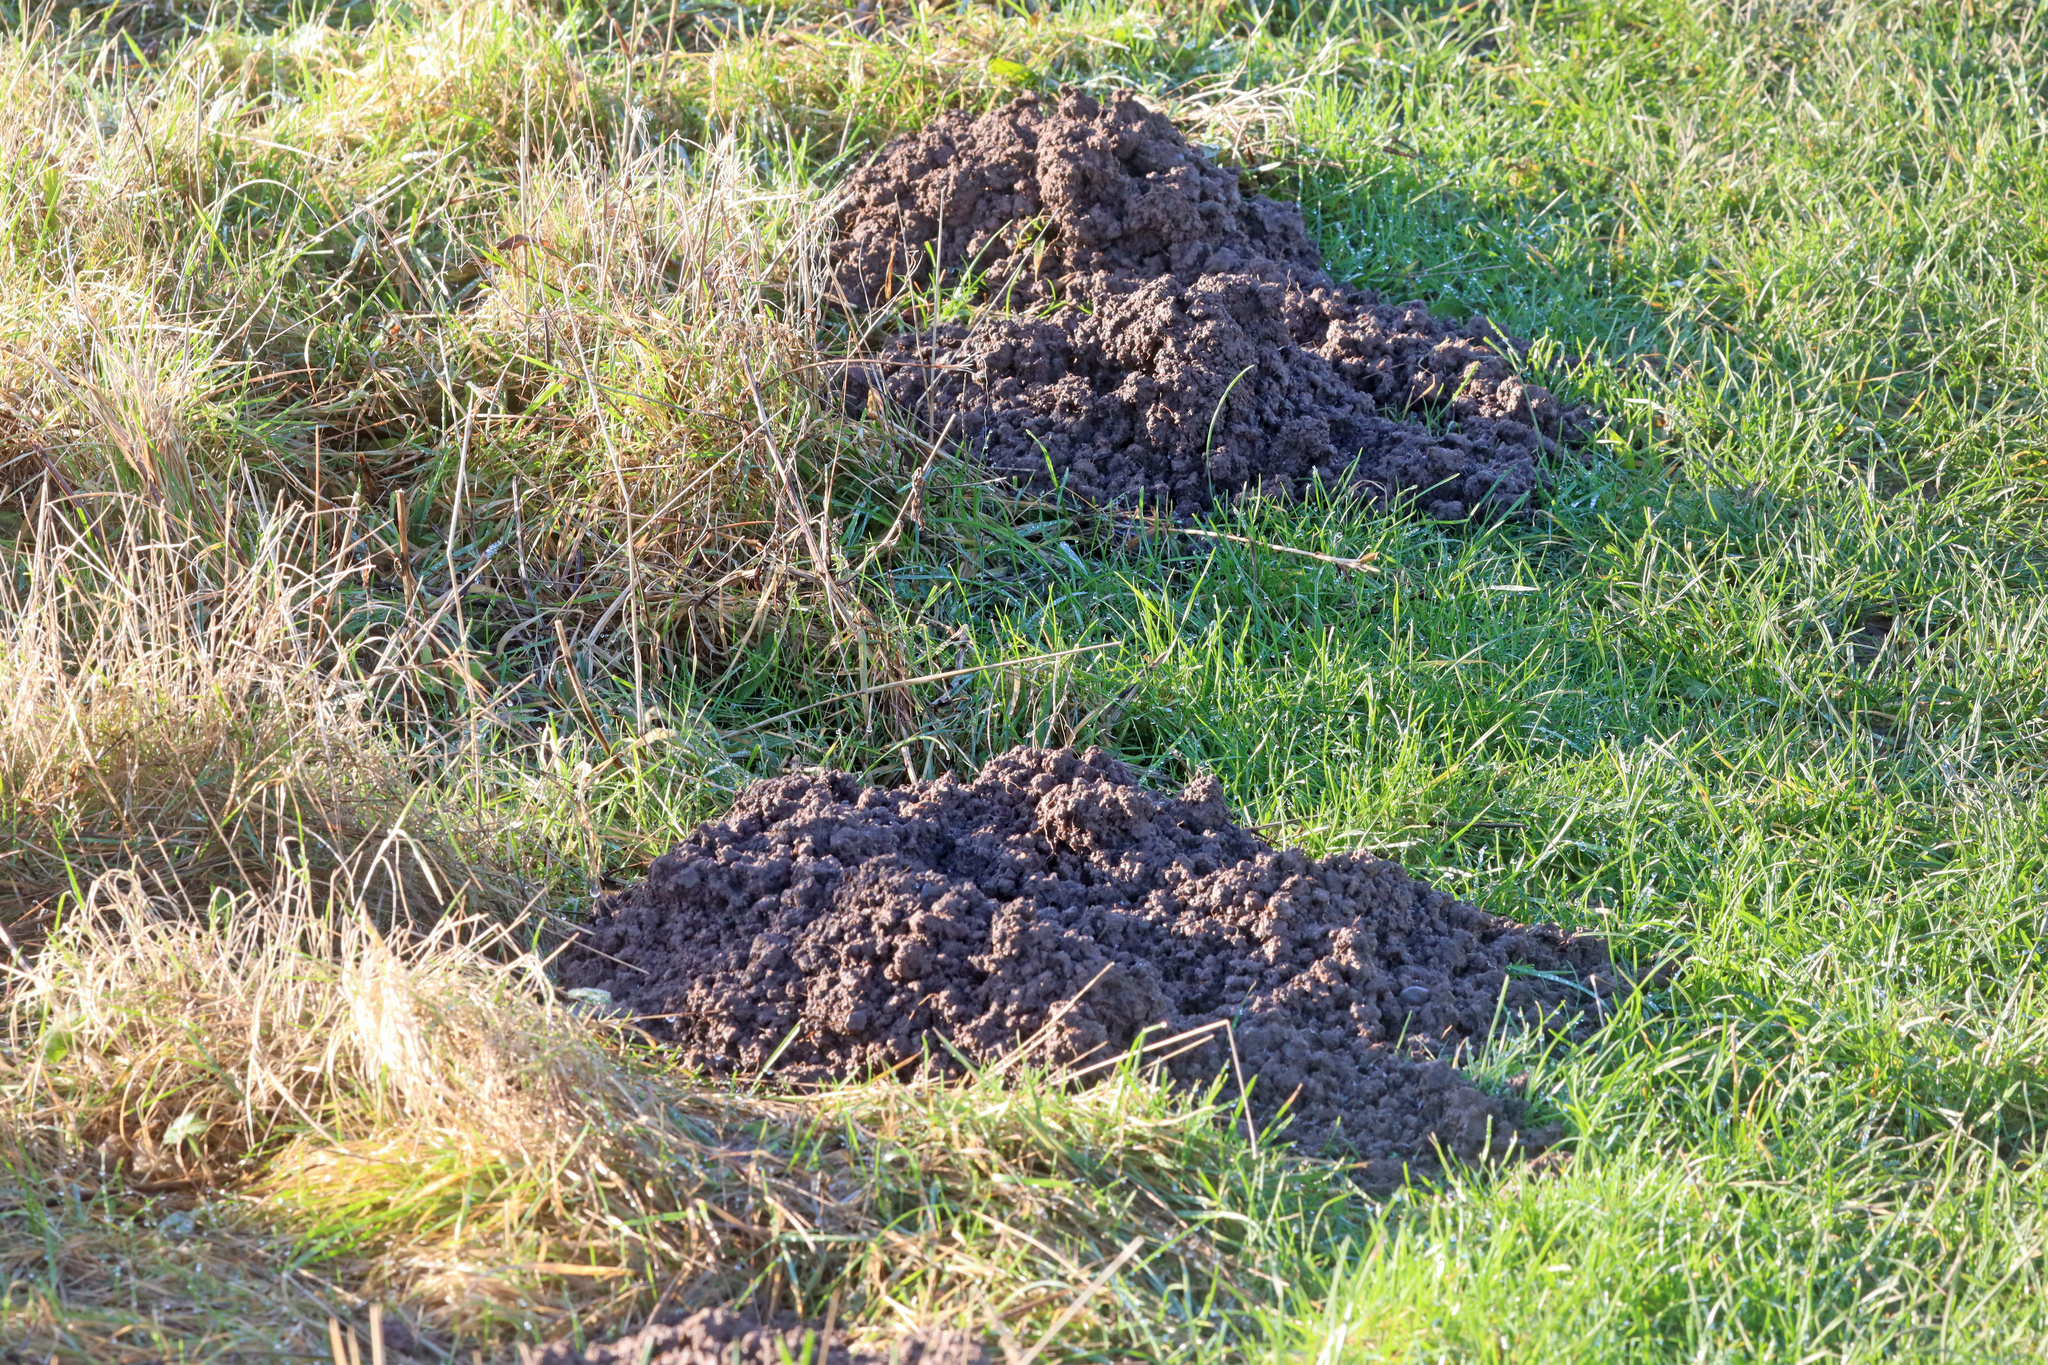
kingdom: Animalia
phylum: Chordata
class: Mammalia
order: Soricomorpha
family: Talpidae
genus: Talpa
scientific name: Talpa europaea
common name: European mole
